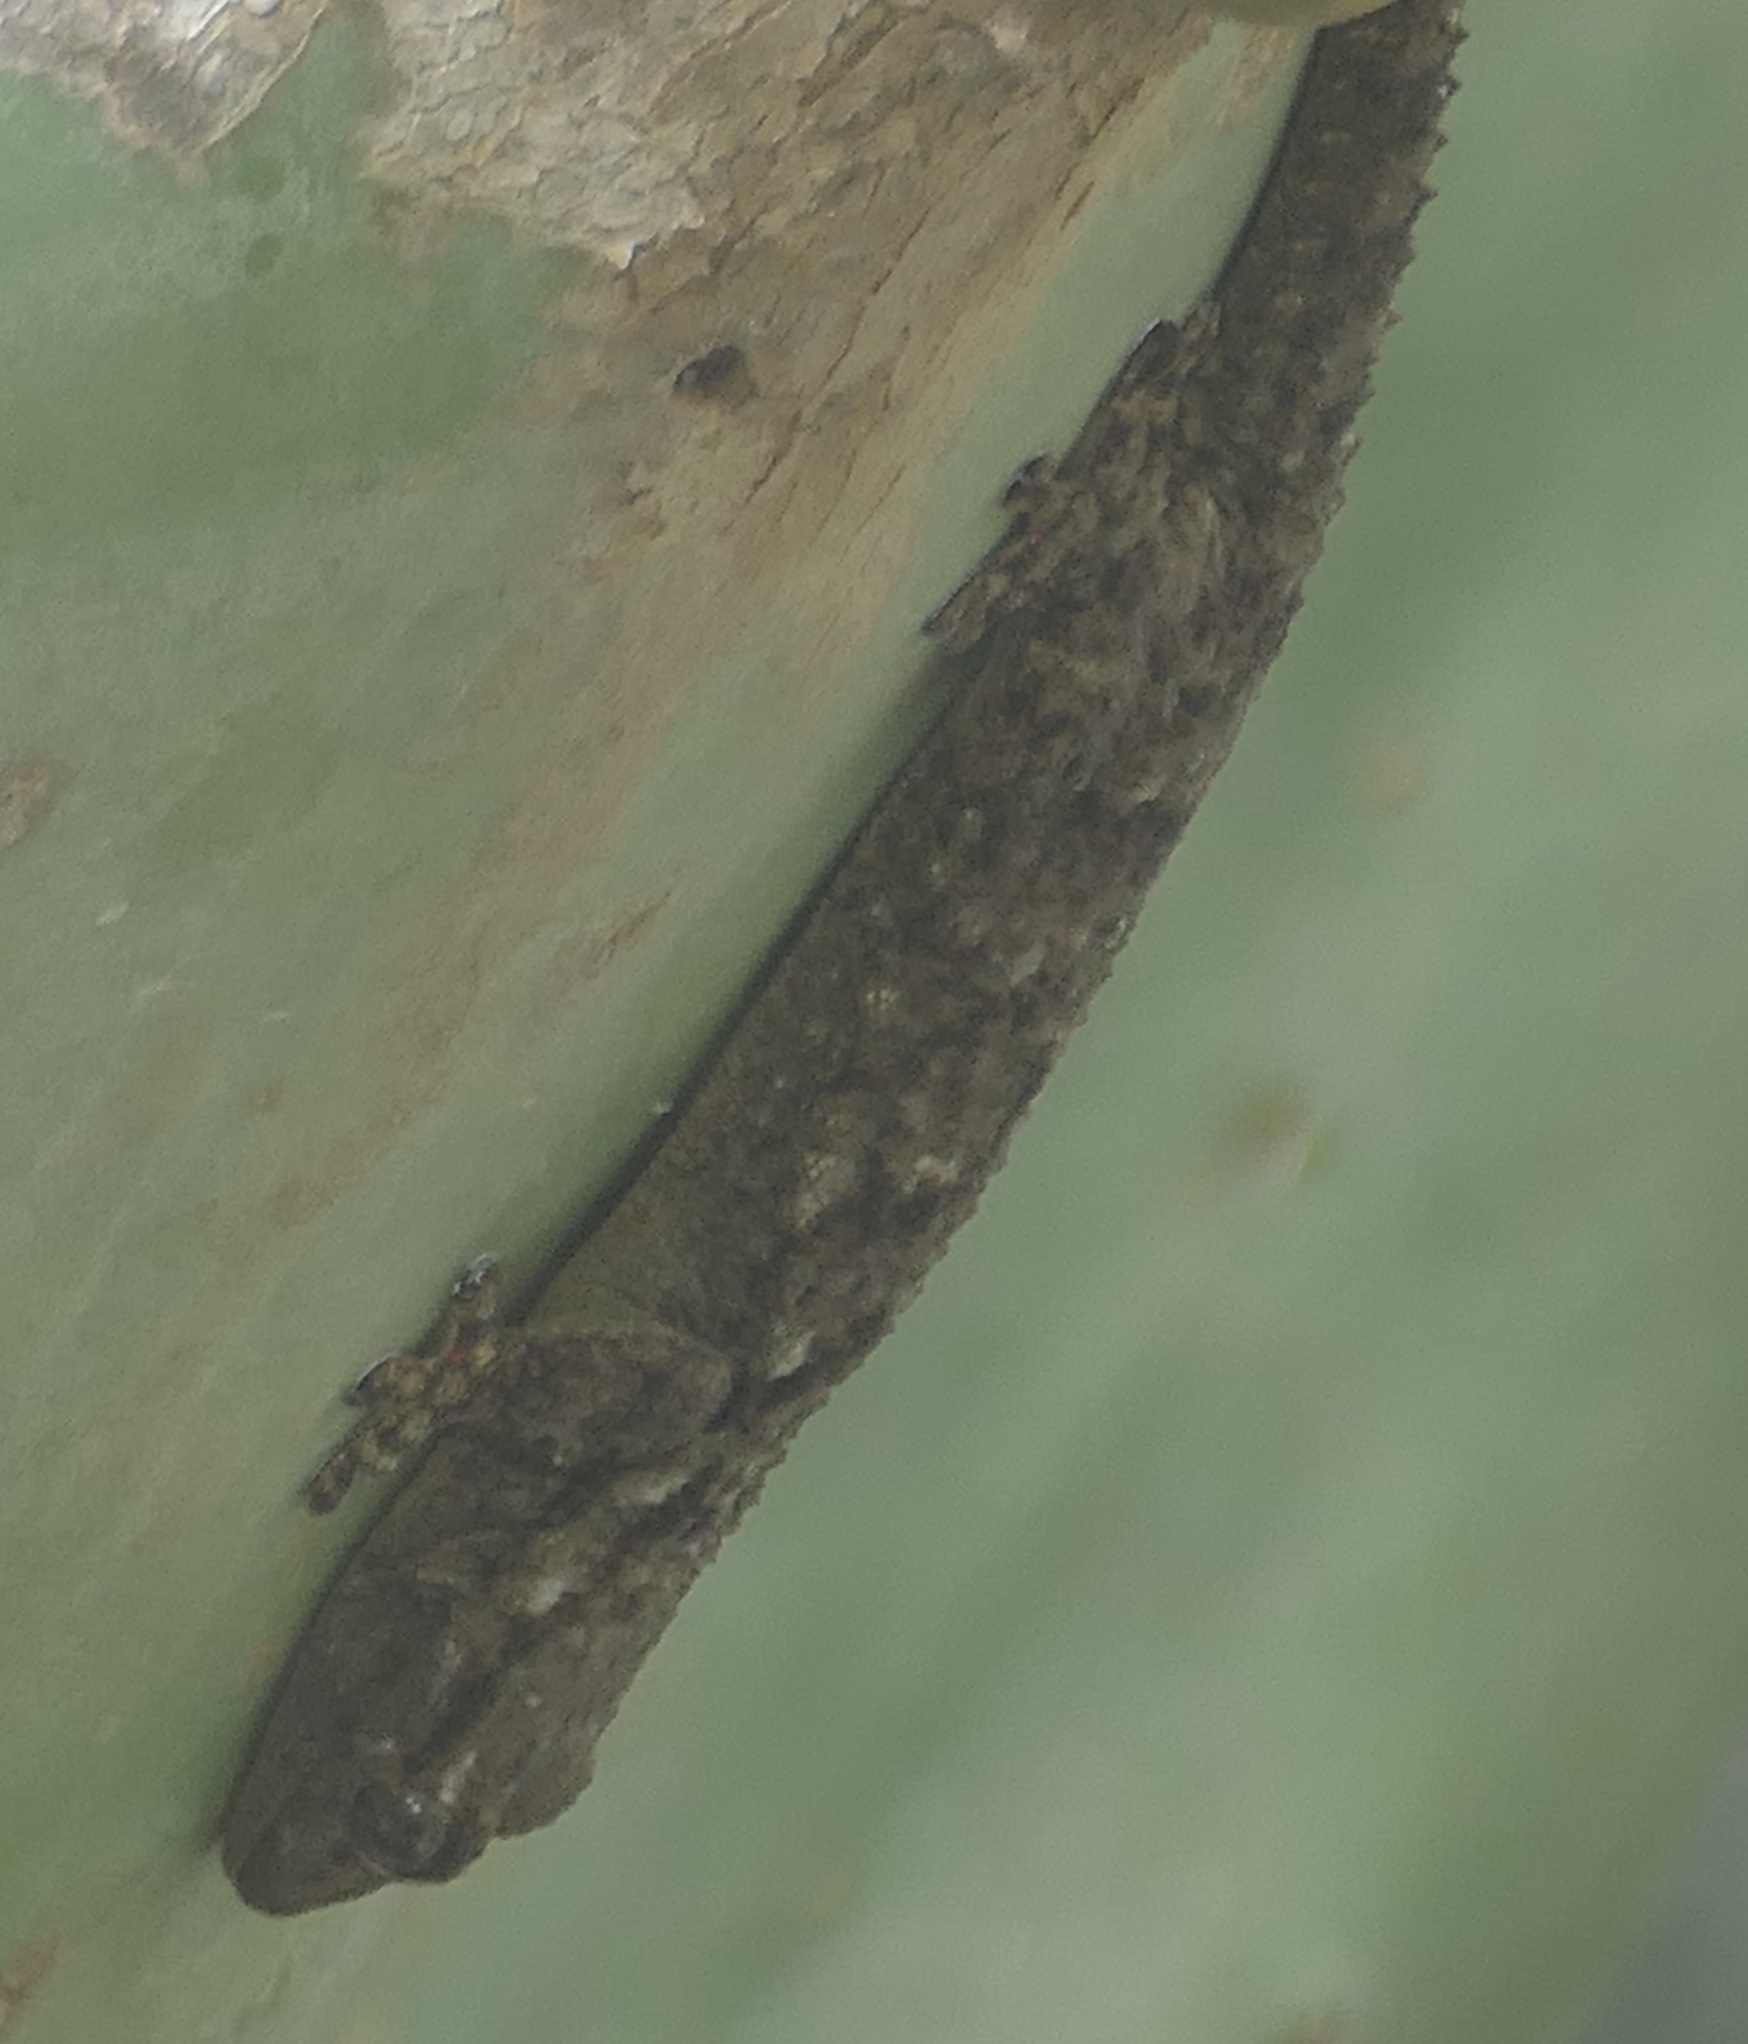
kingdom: Animalia
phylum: Chordata
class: Squamata
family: Phyllodactylidae
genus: Tarentola
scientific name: Tarentola mauritanica
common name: Moorish gecko
